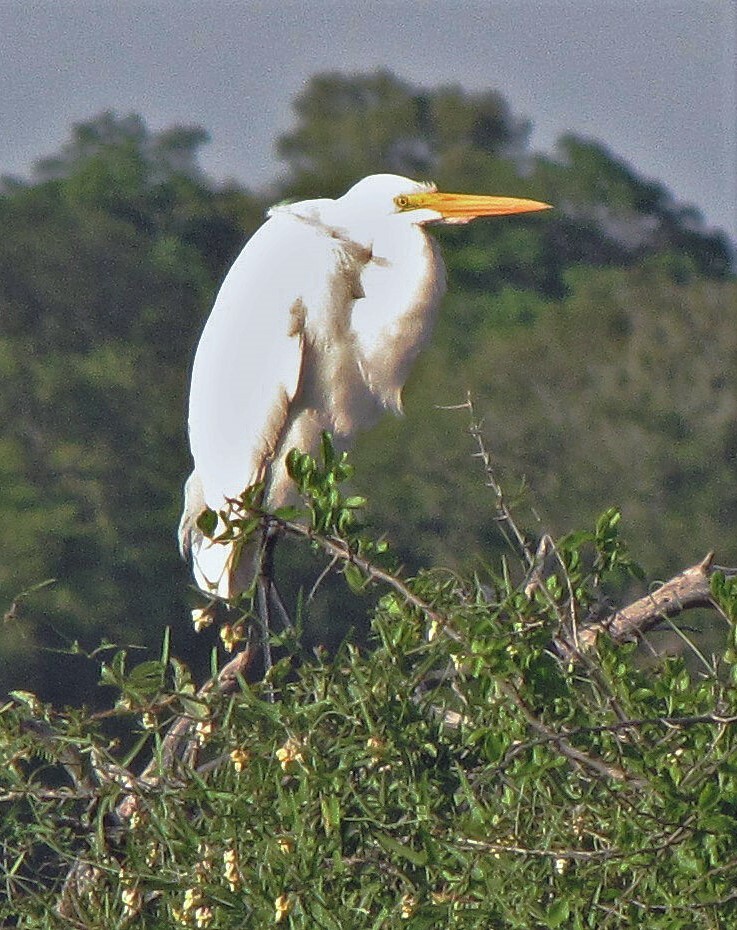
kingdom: Animalia
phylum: Chordata
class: Aves
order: Pelecaniformes
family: Ardeidae
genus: Ardea
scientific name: Ardea alba
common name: Great egret
